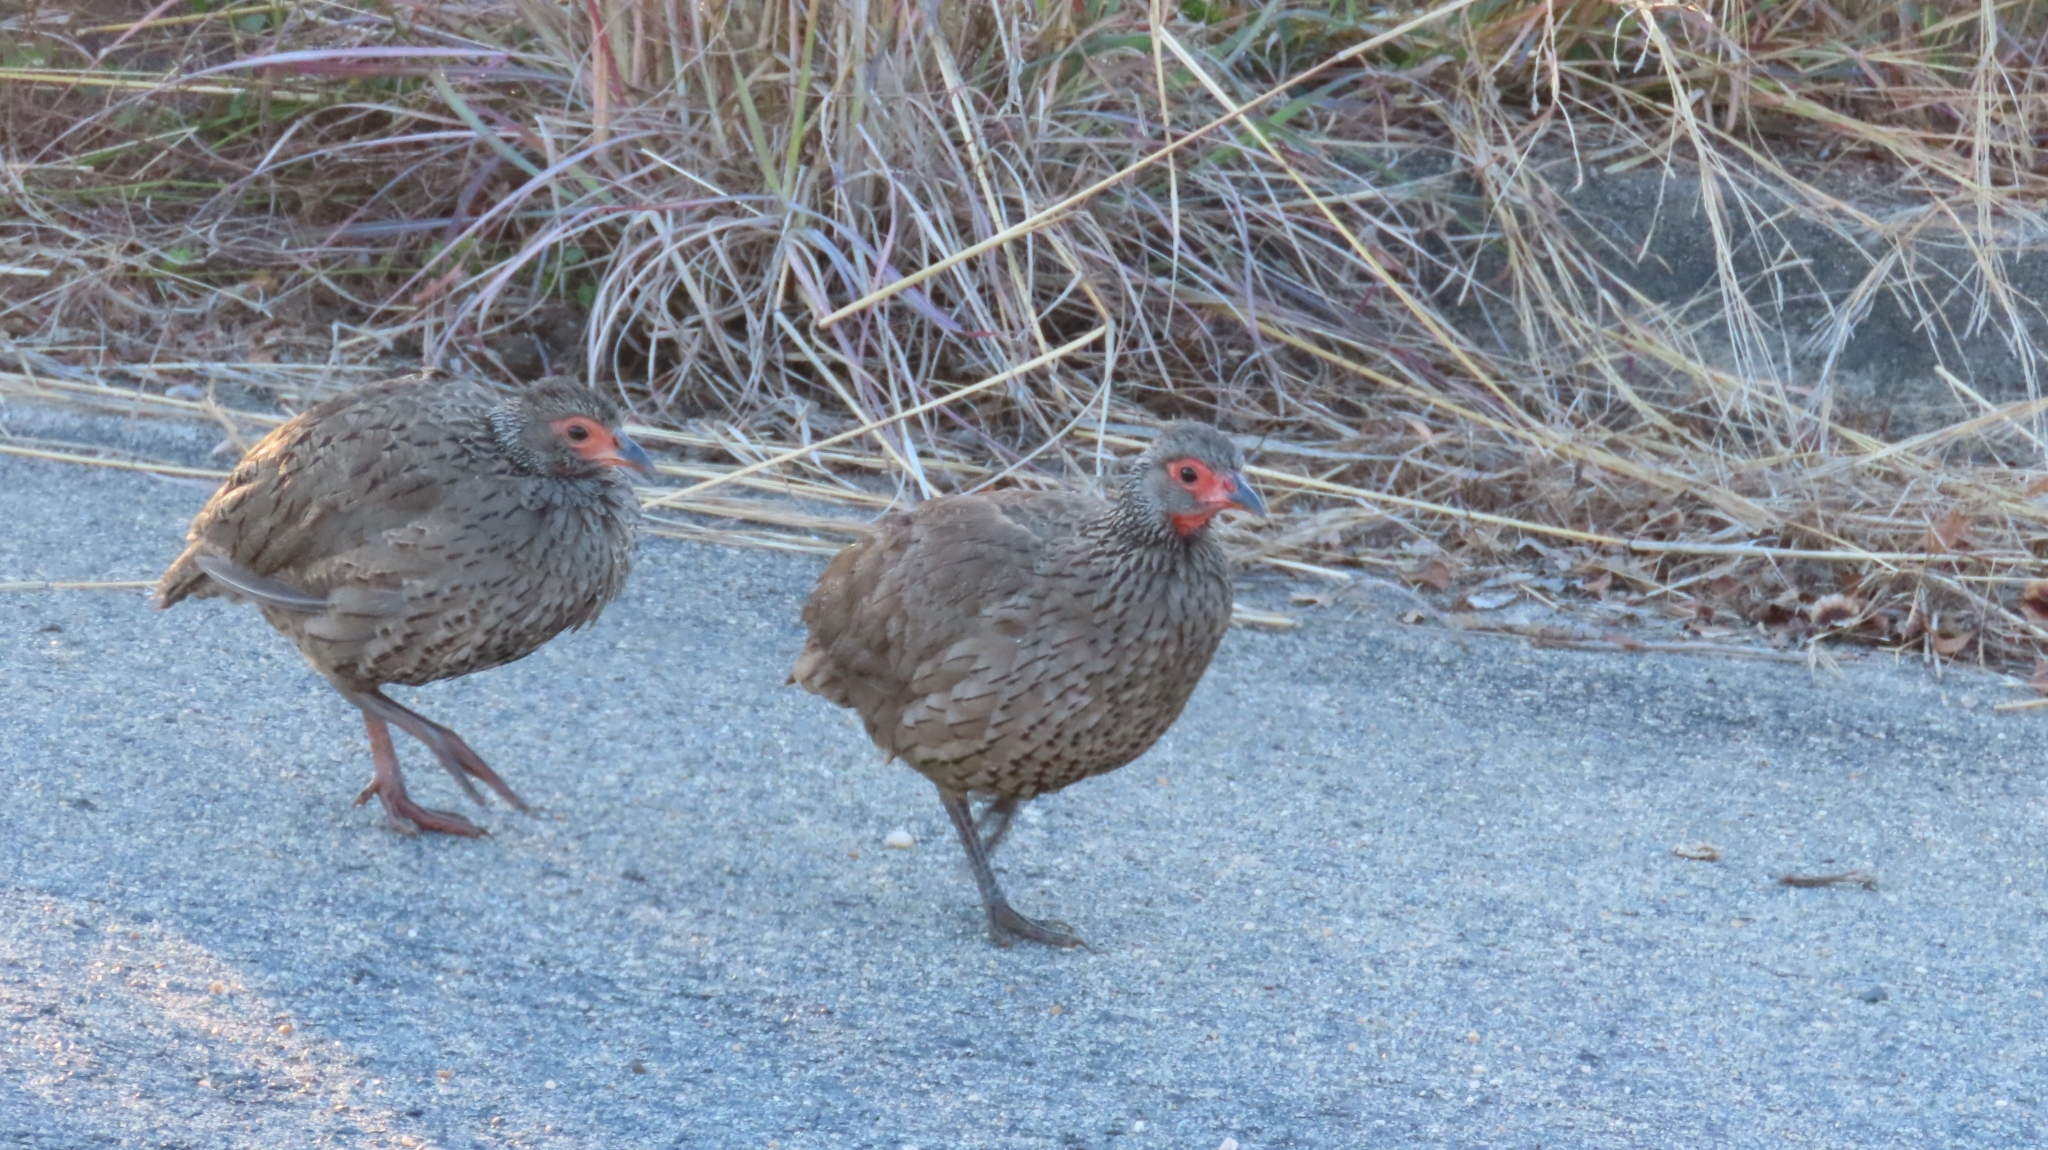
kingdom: Animalia
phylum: Chordata
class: Aves
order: Galliformes
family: Phasianidae
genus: Pternistis
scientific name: Pternistis swainsonii
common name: Swainson's spurfowl
